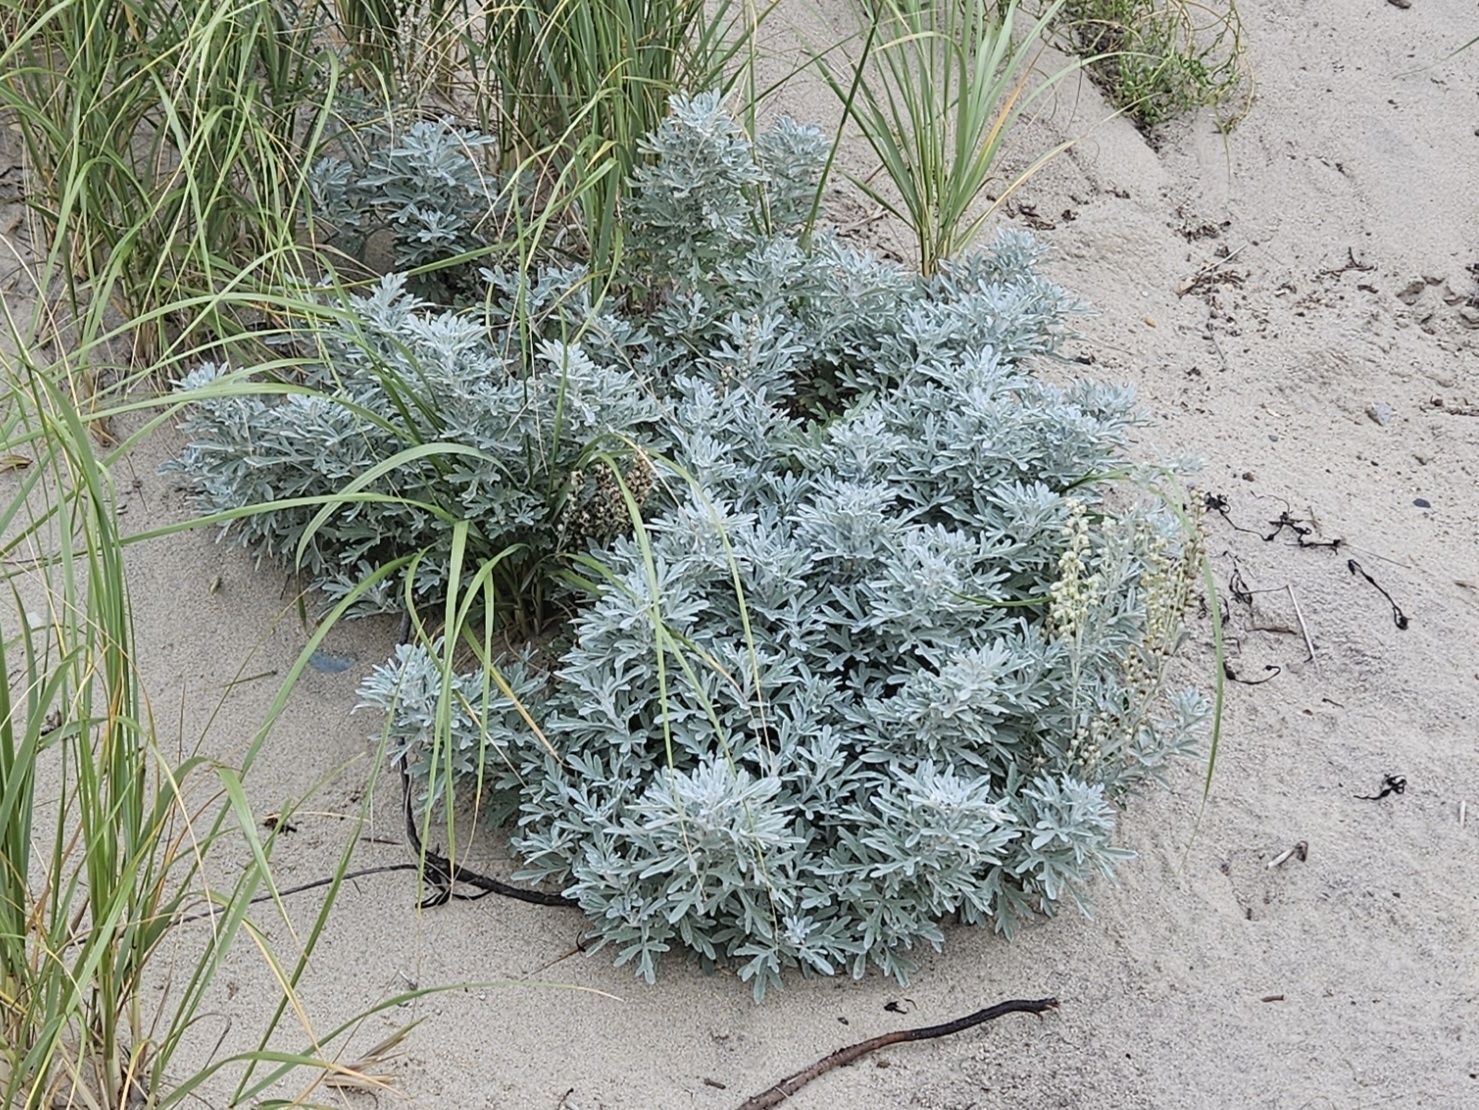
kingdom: Plantae
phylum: Tracheophyta
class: Magnoliopsida
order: Asterales
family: Asteraceae
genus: Artemisia
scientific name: Artemisia stelleriana
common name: Beach wormwood
